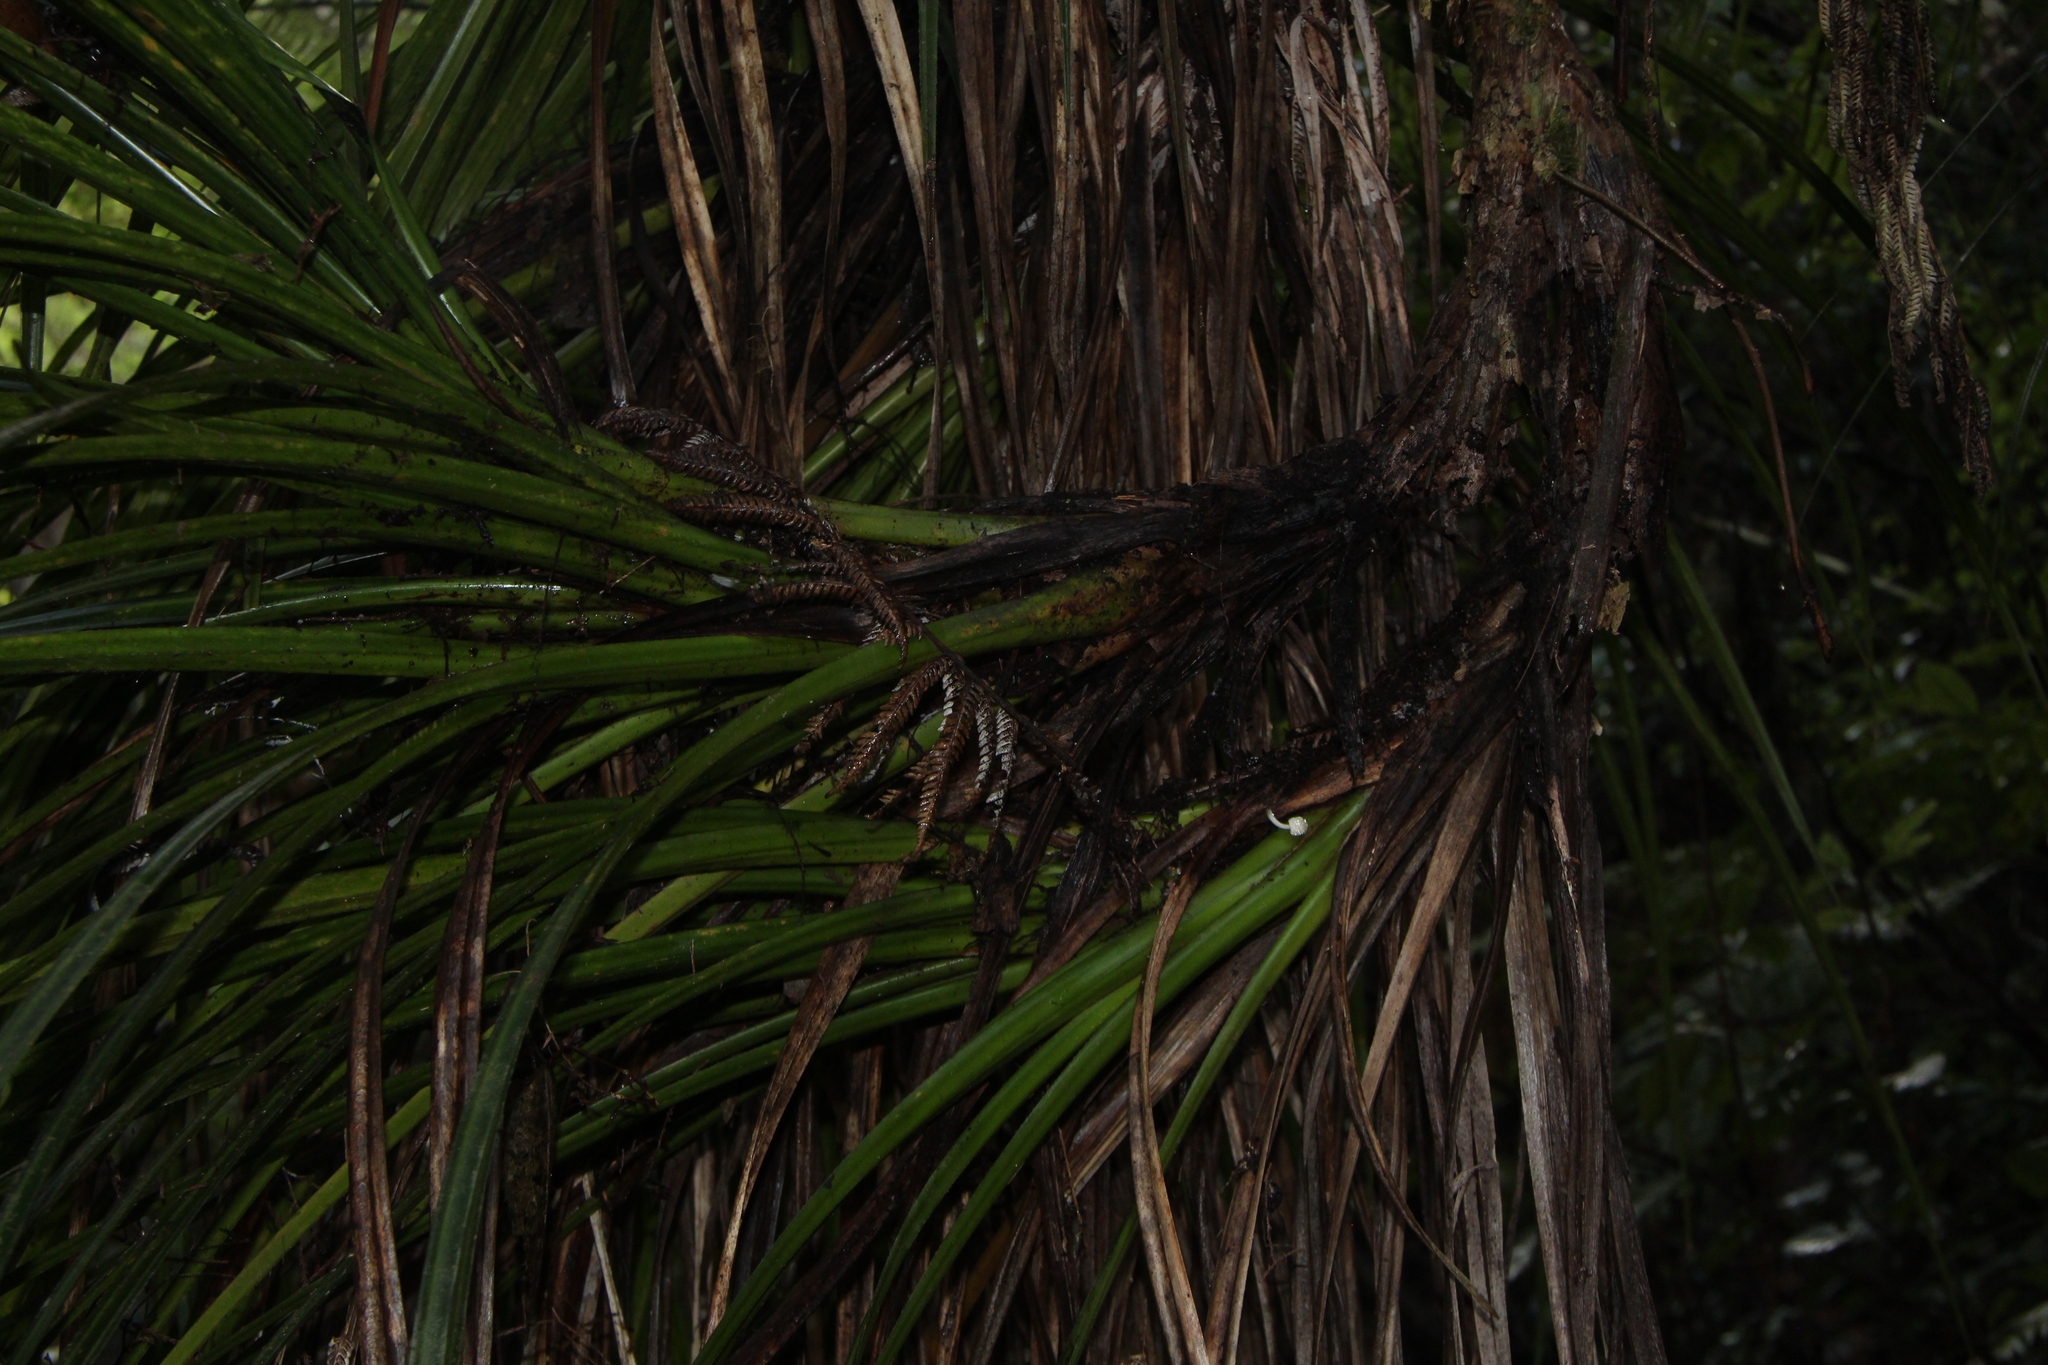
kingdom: Plantae
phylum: Tracheophyta
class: Liliopsida
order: Pandanales
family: Pandanaceae
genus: Freycinetia
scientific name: Freycinetia banksii
